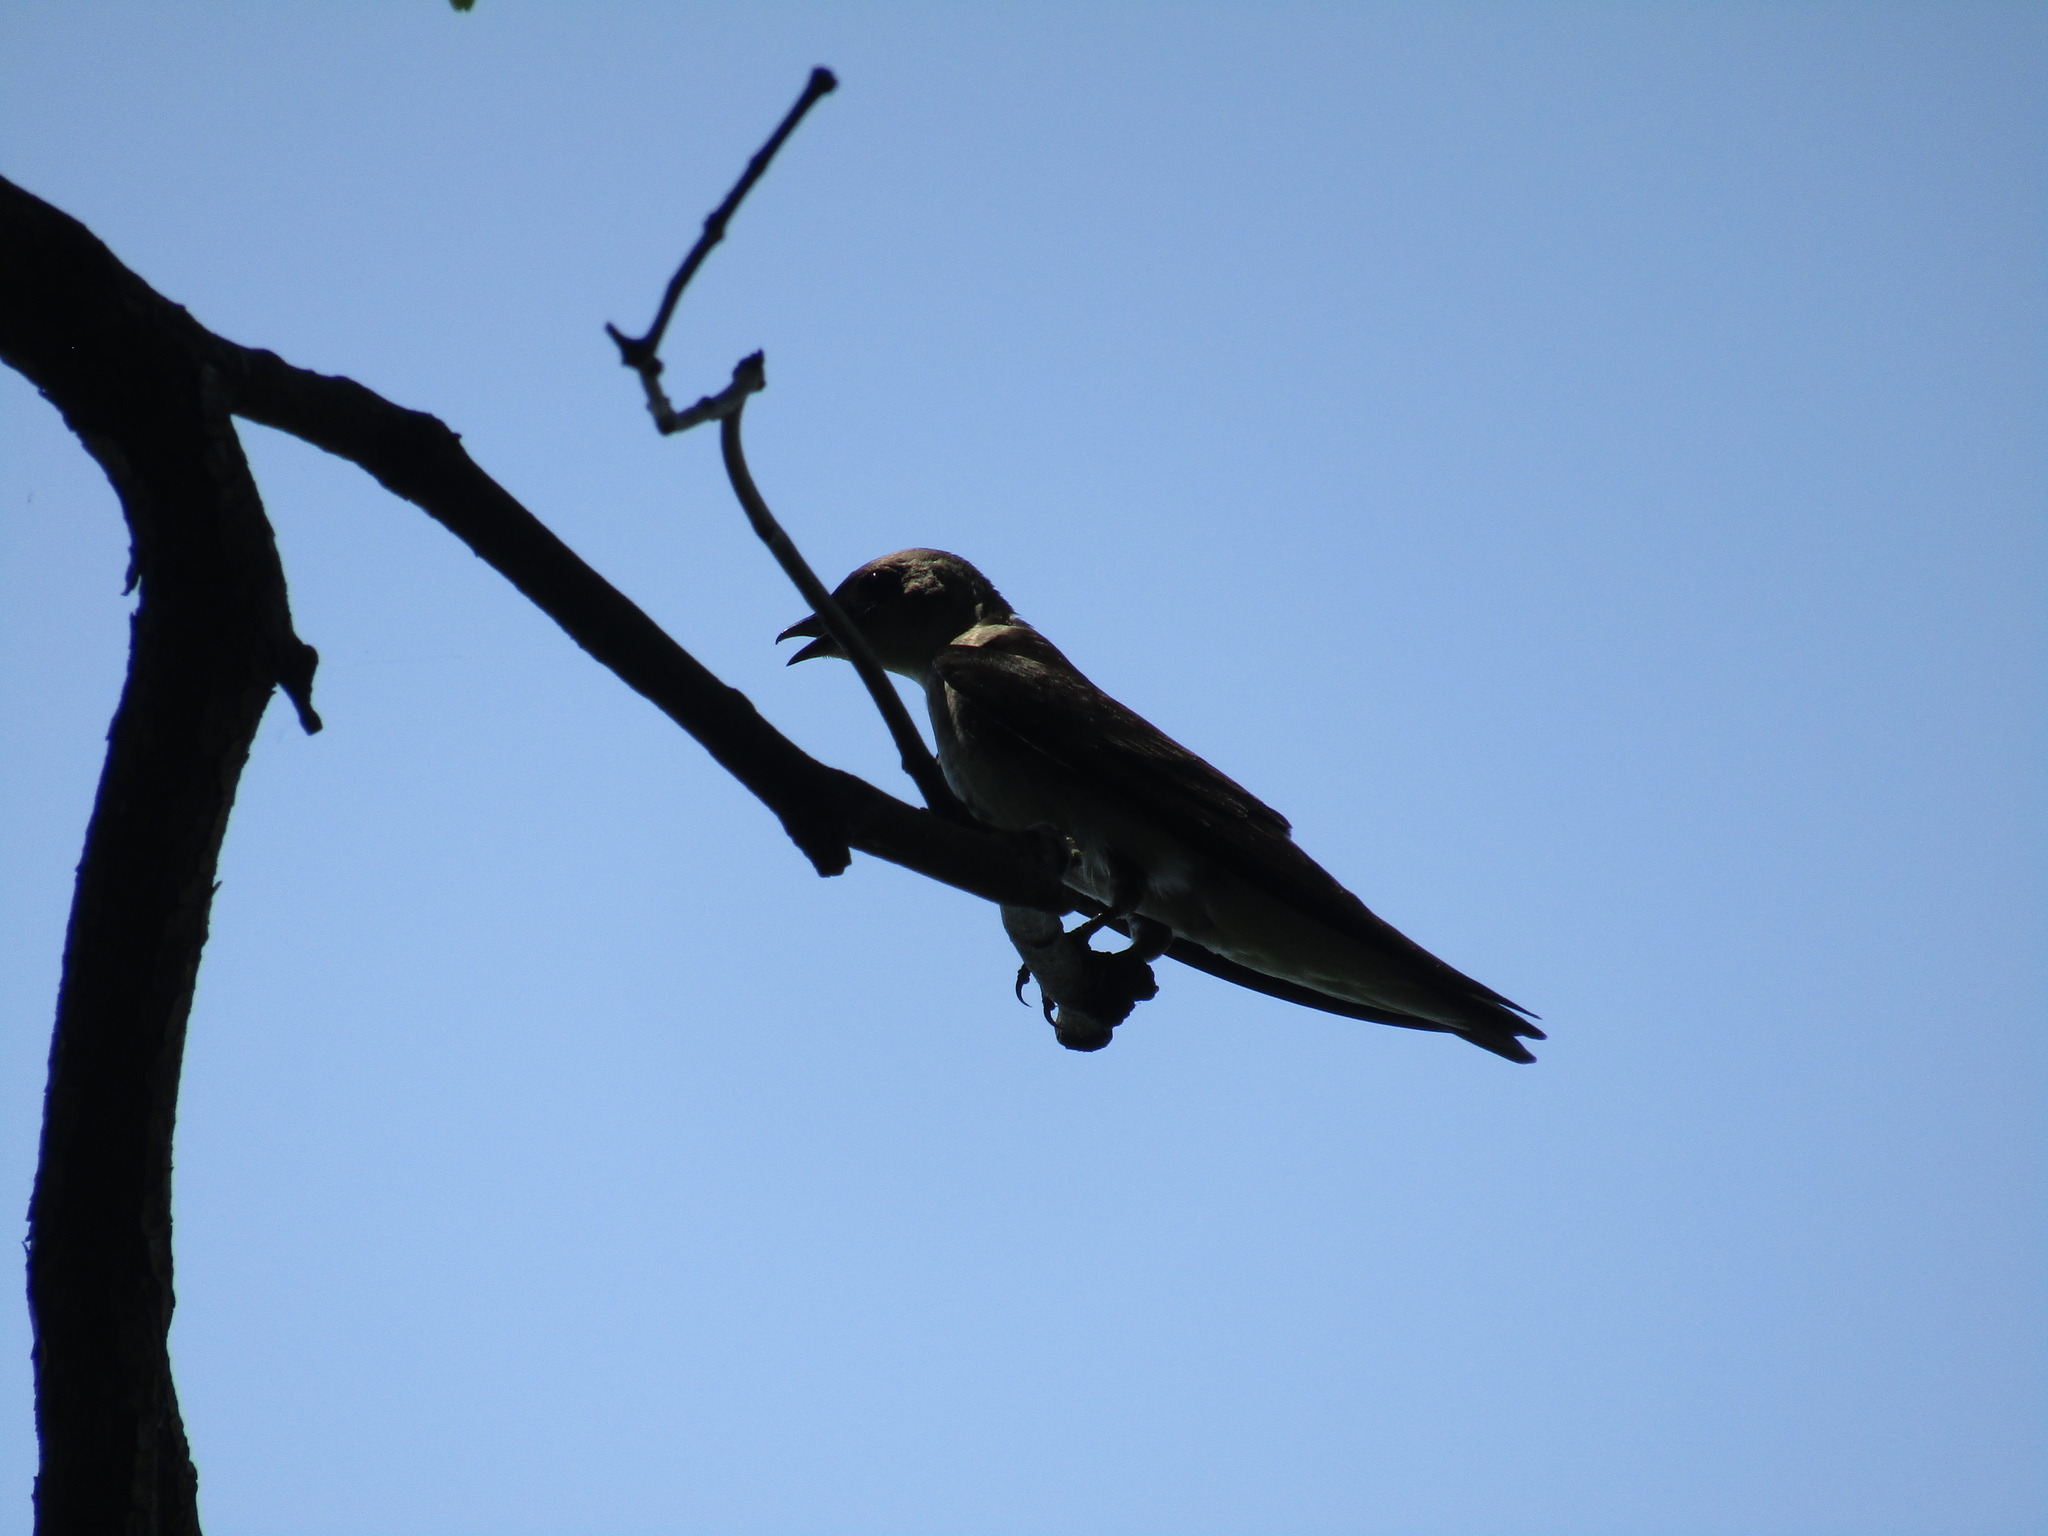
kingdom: Animalia
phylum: Chordata
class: Aves
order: Passeriformes
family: Hirundinidae
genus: Progne
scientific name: Progne tapera
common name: Brown-chested martin
